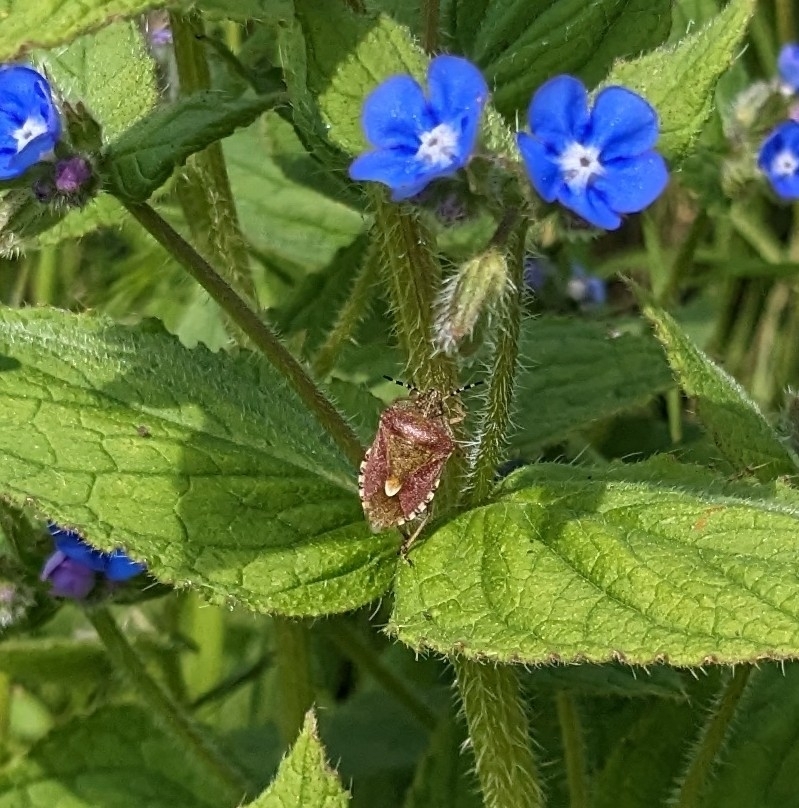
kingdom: Animalia
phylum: Arthropoda
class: Insecta
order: Hemiptera
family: Pentatomidae
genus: Dolycoris
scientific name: Dolycoris baccarum
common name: Sloe bug
